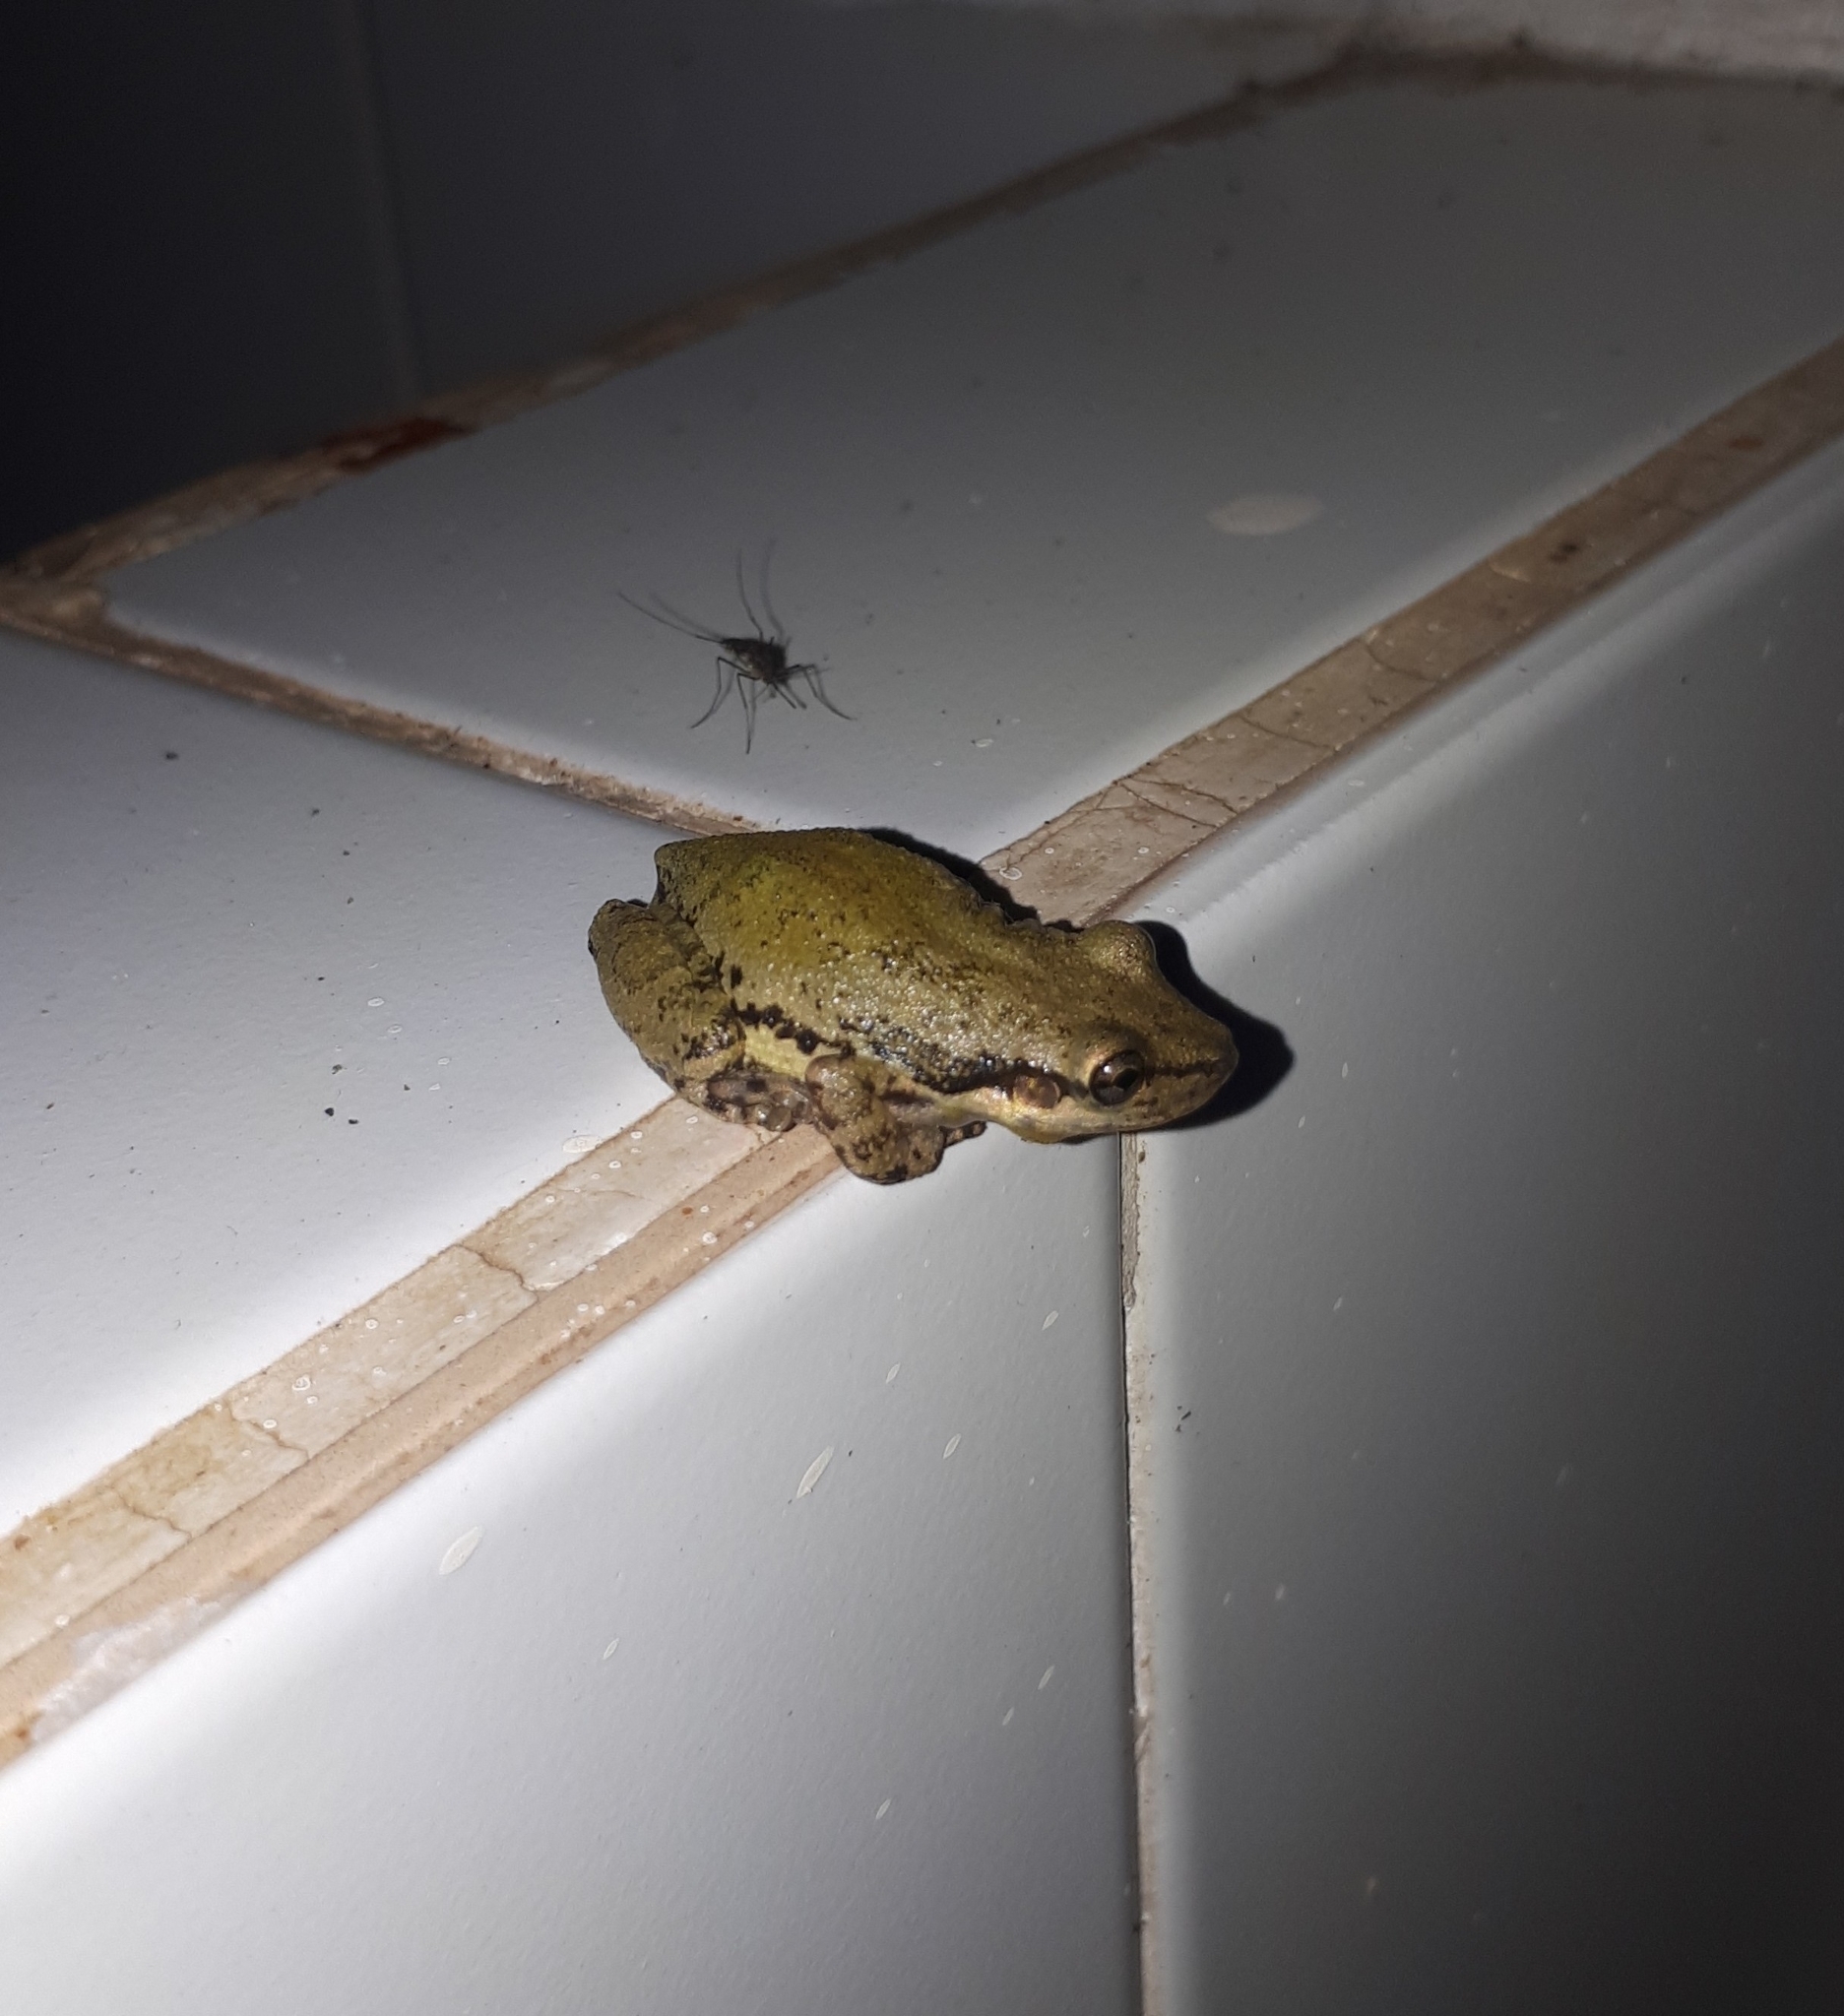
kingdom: Animalia
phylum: Chordata
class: Amphibia
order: Anura
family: Hylidae
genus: Scinax
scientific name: Scinax nasicus
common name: Lesser snouted treefrog
